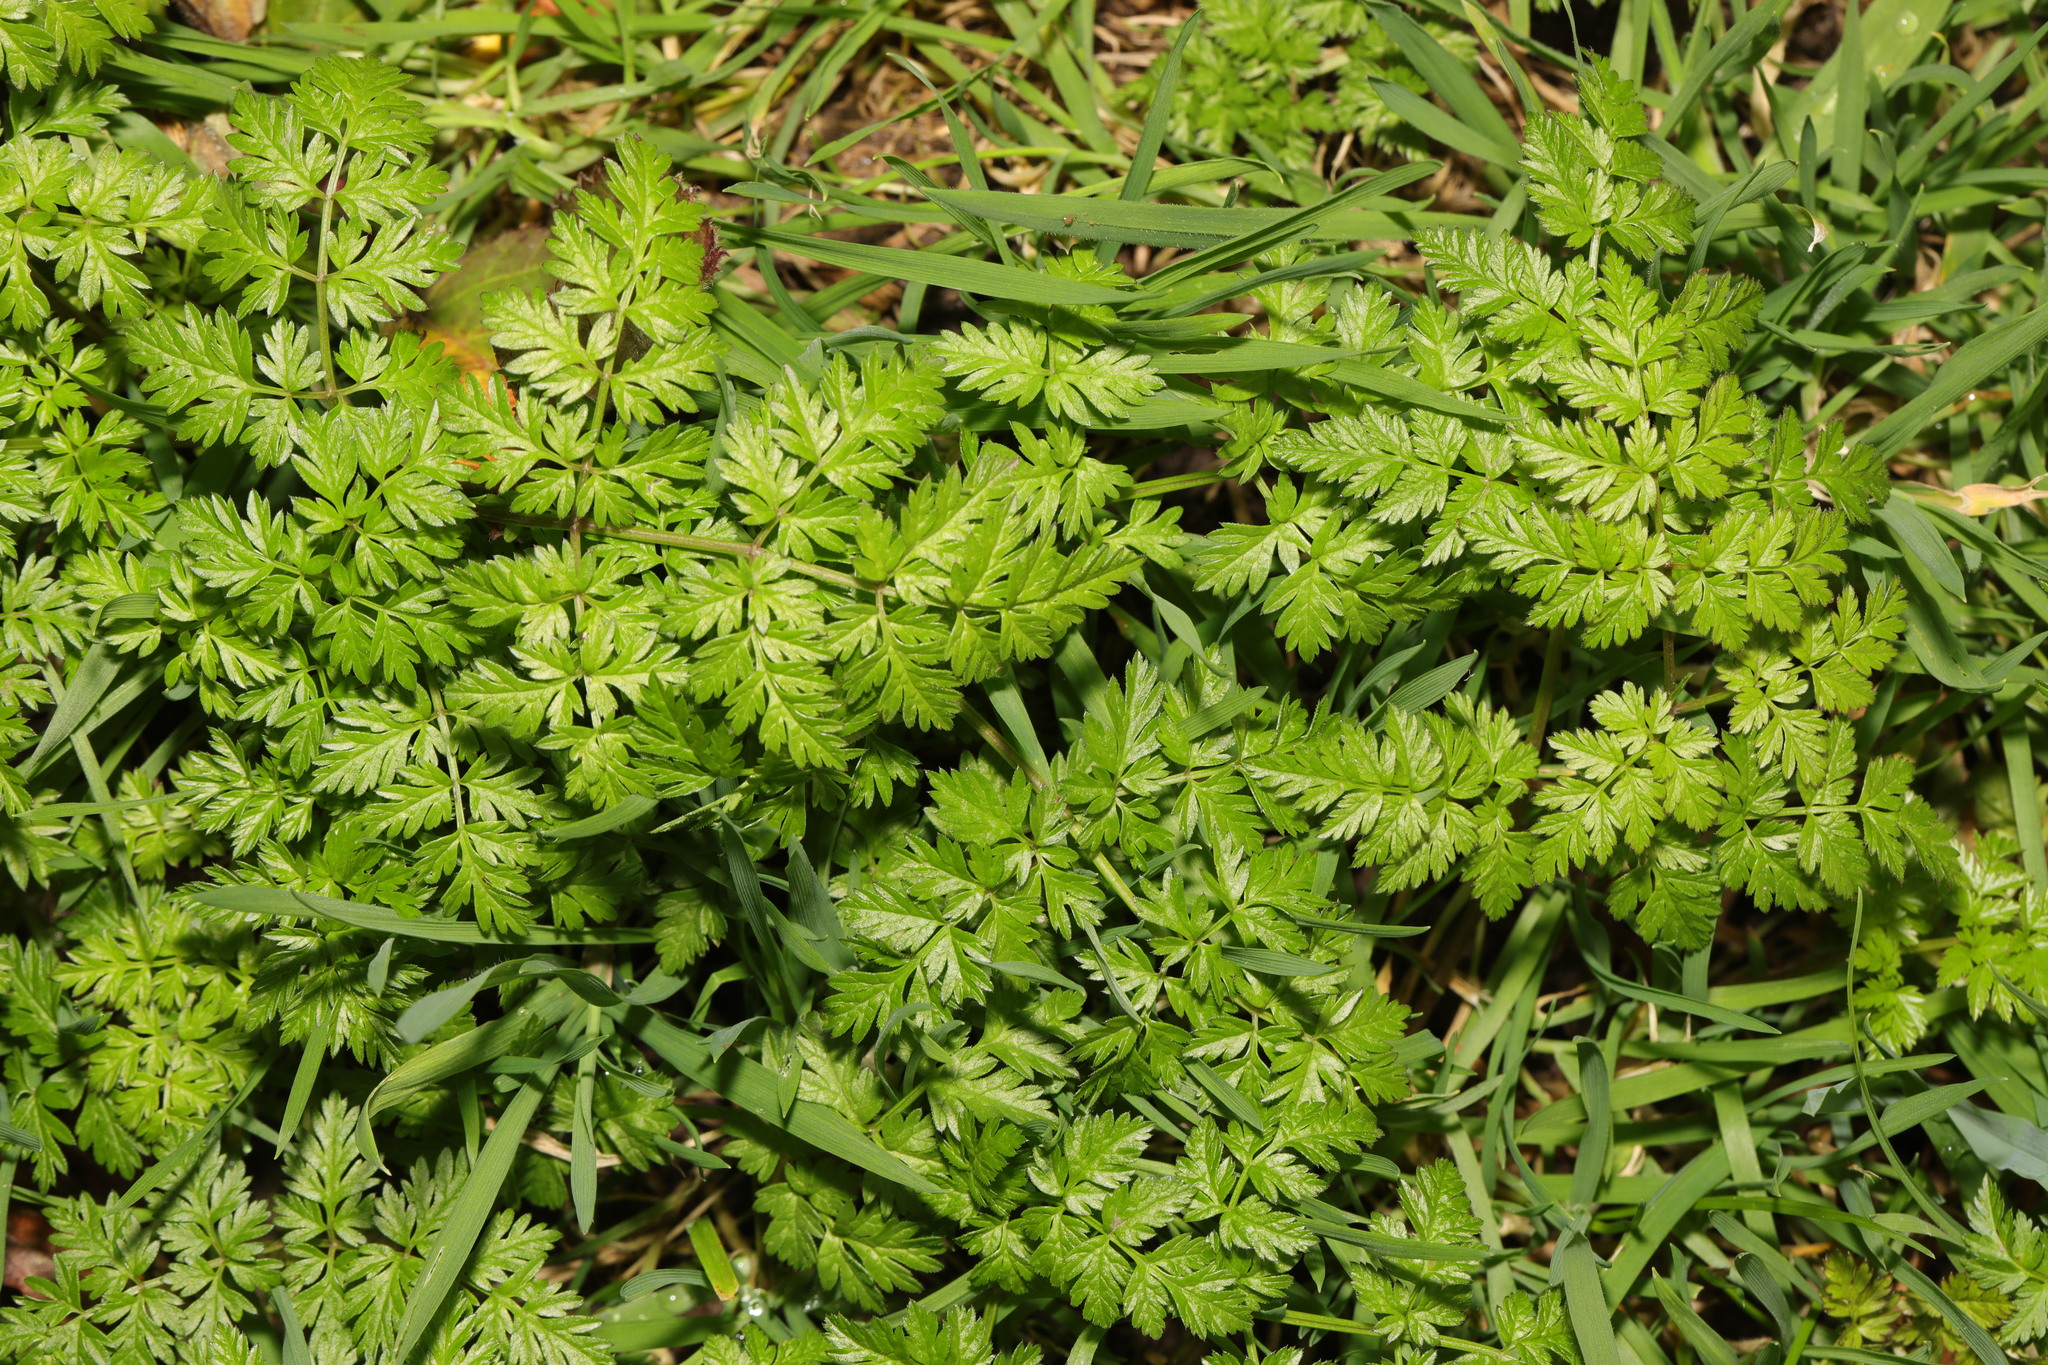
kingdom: Plantae
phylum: Tracheophyta
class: Magnoliopsida
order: Apiales
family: Apiaceae
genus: Anthriscus
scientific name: Anthriscus sylvestris
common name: Cow parsley
